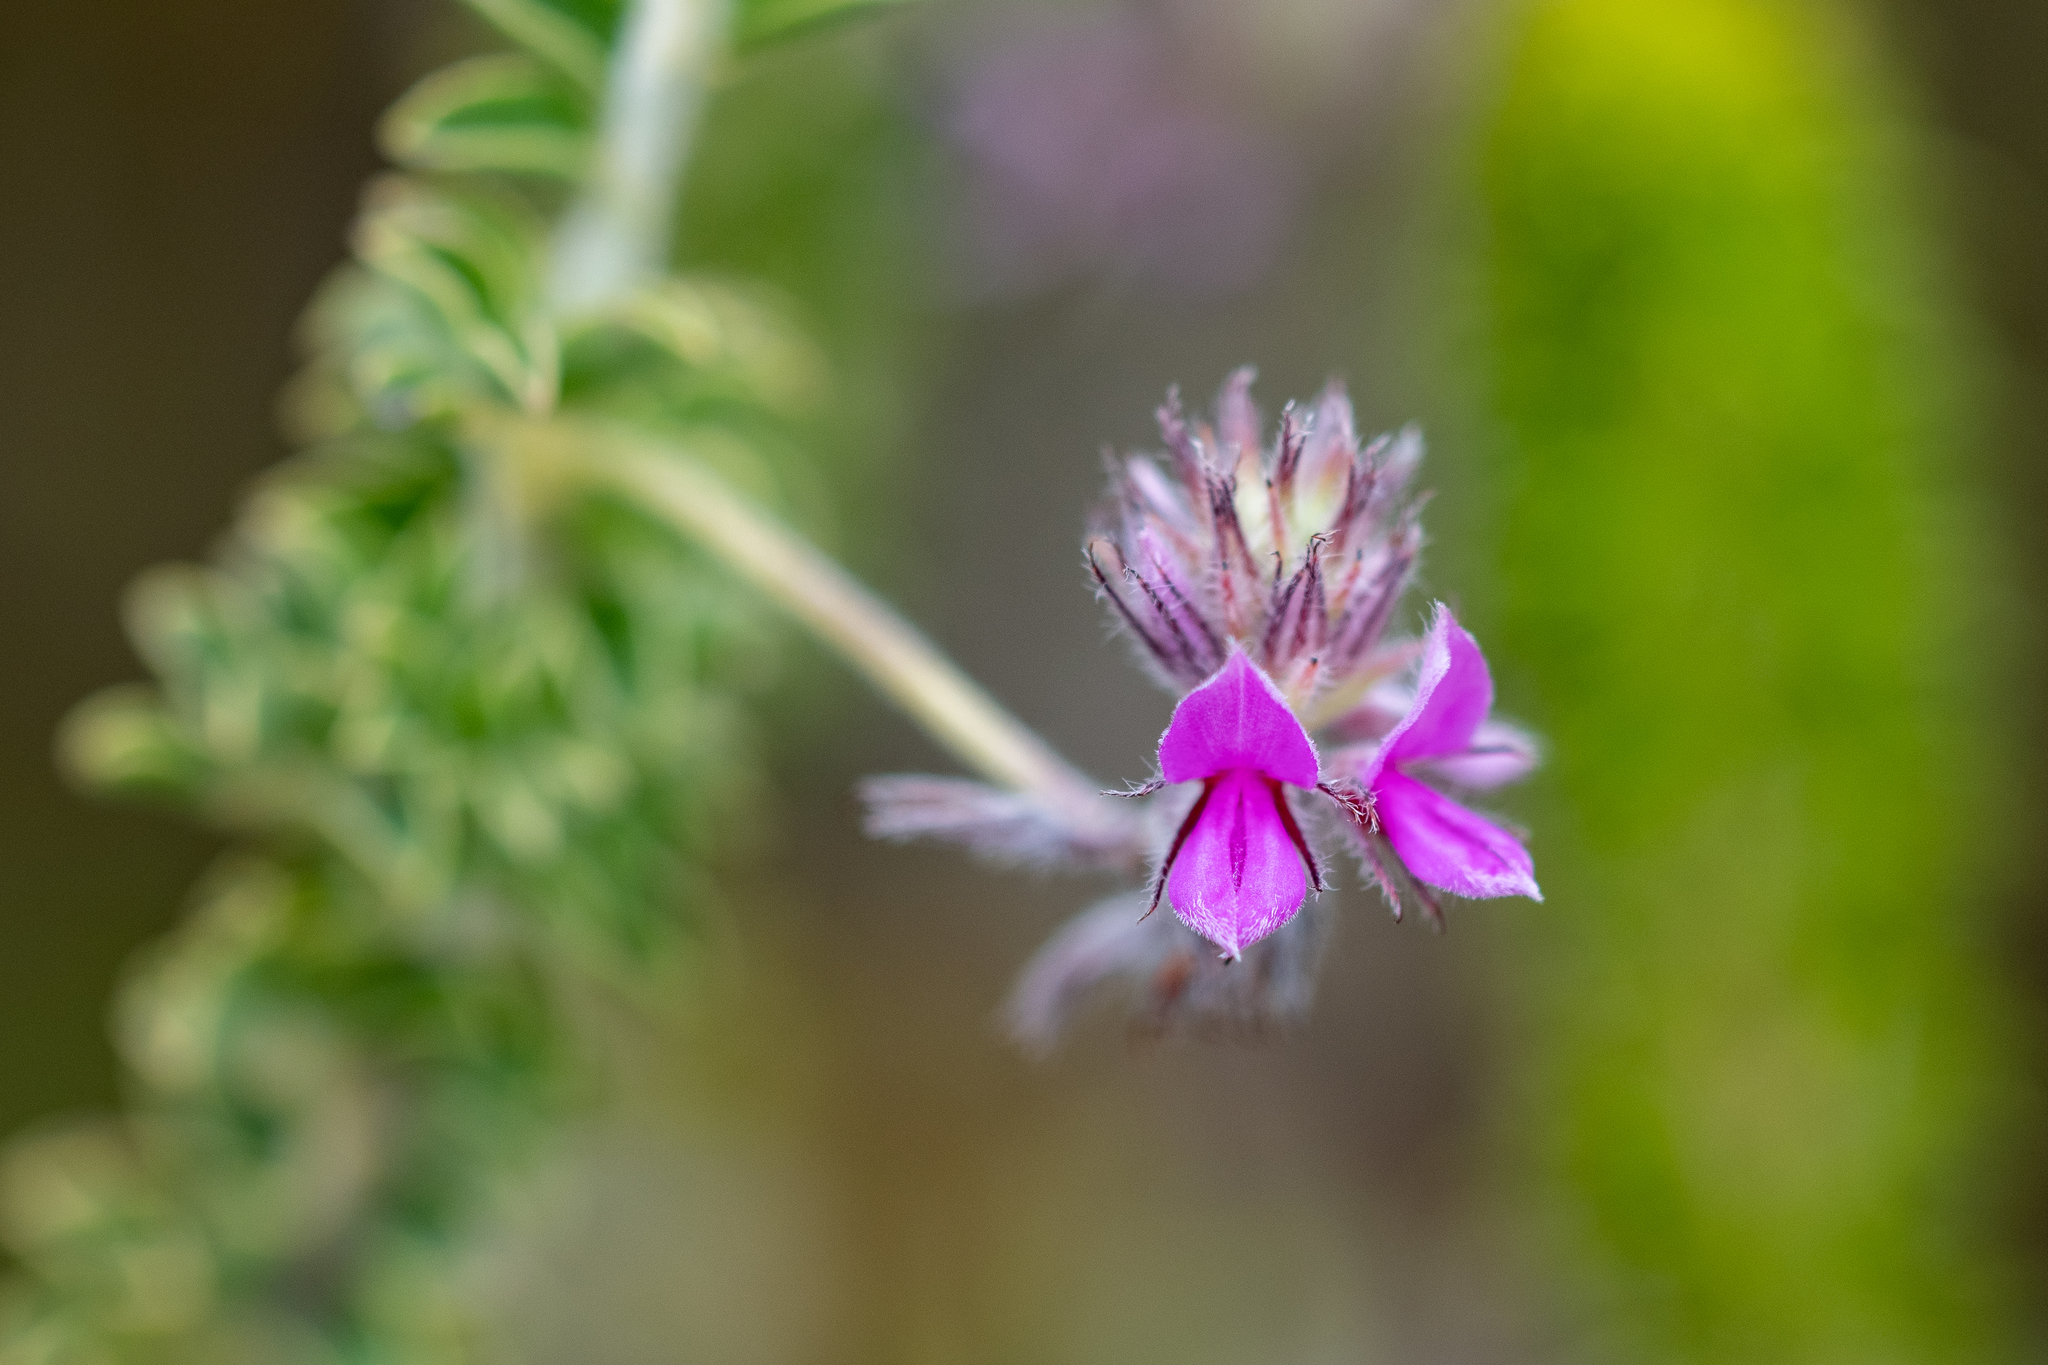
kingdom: Plantae
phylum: Tracheophyta
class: Magnoliopsida
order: Fabales
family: Fabaceae
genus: Indigofera
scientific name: Indigofera alopecuroides
